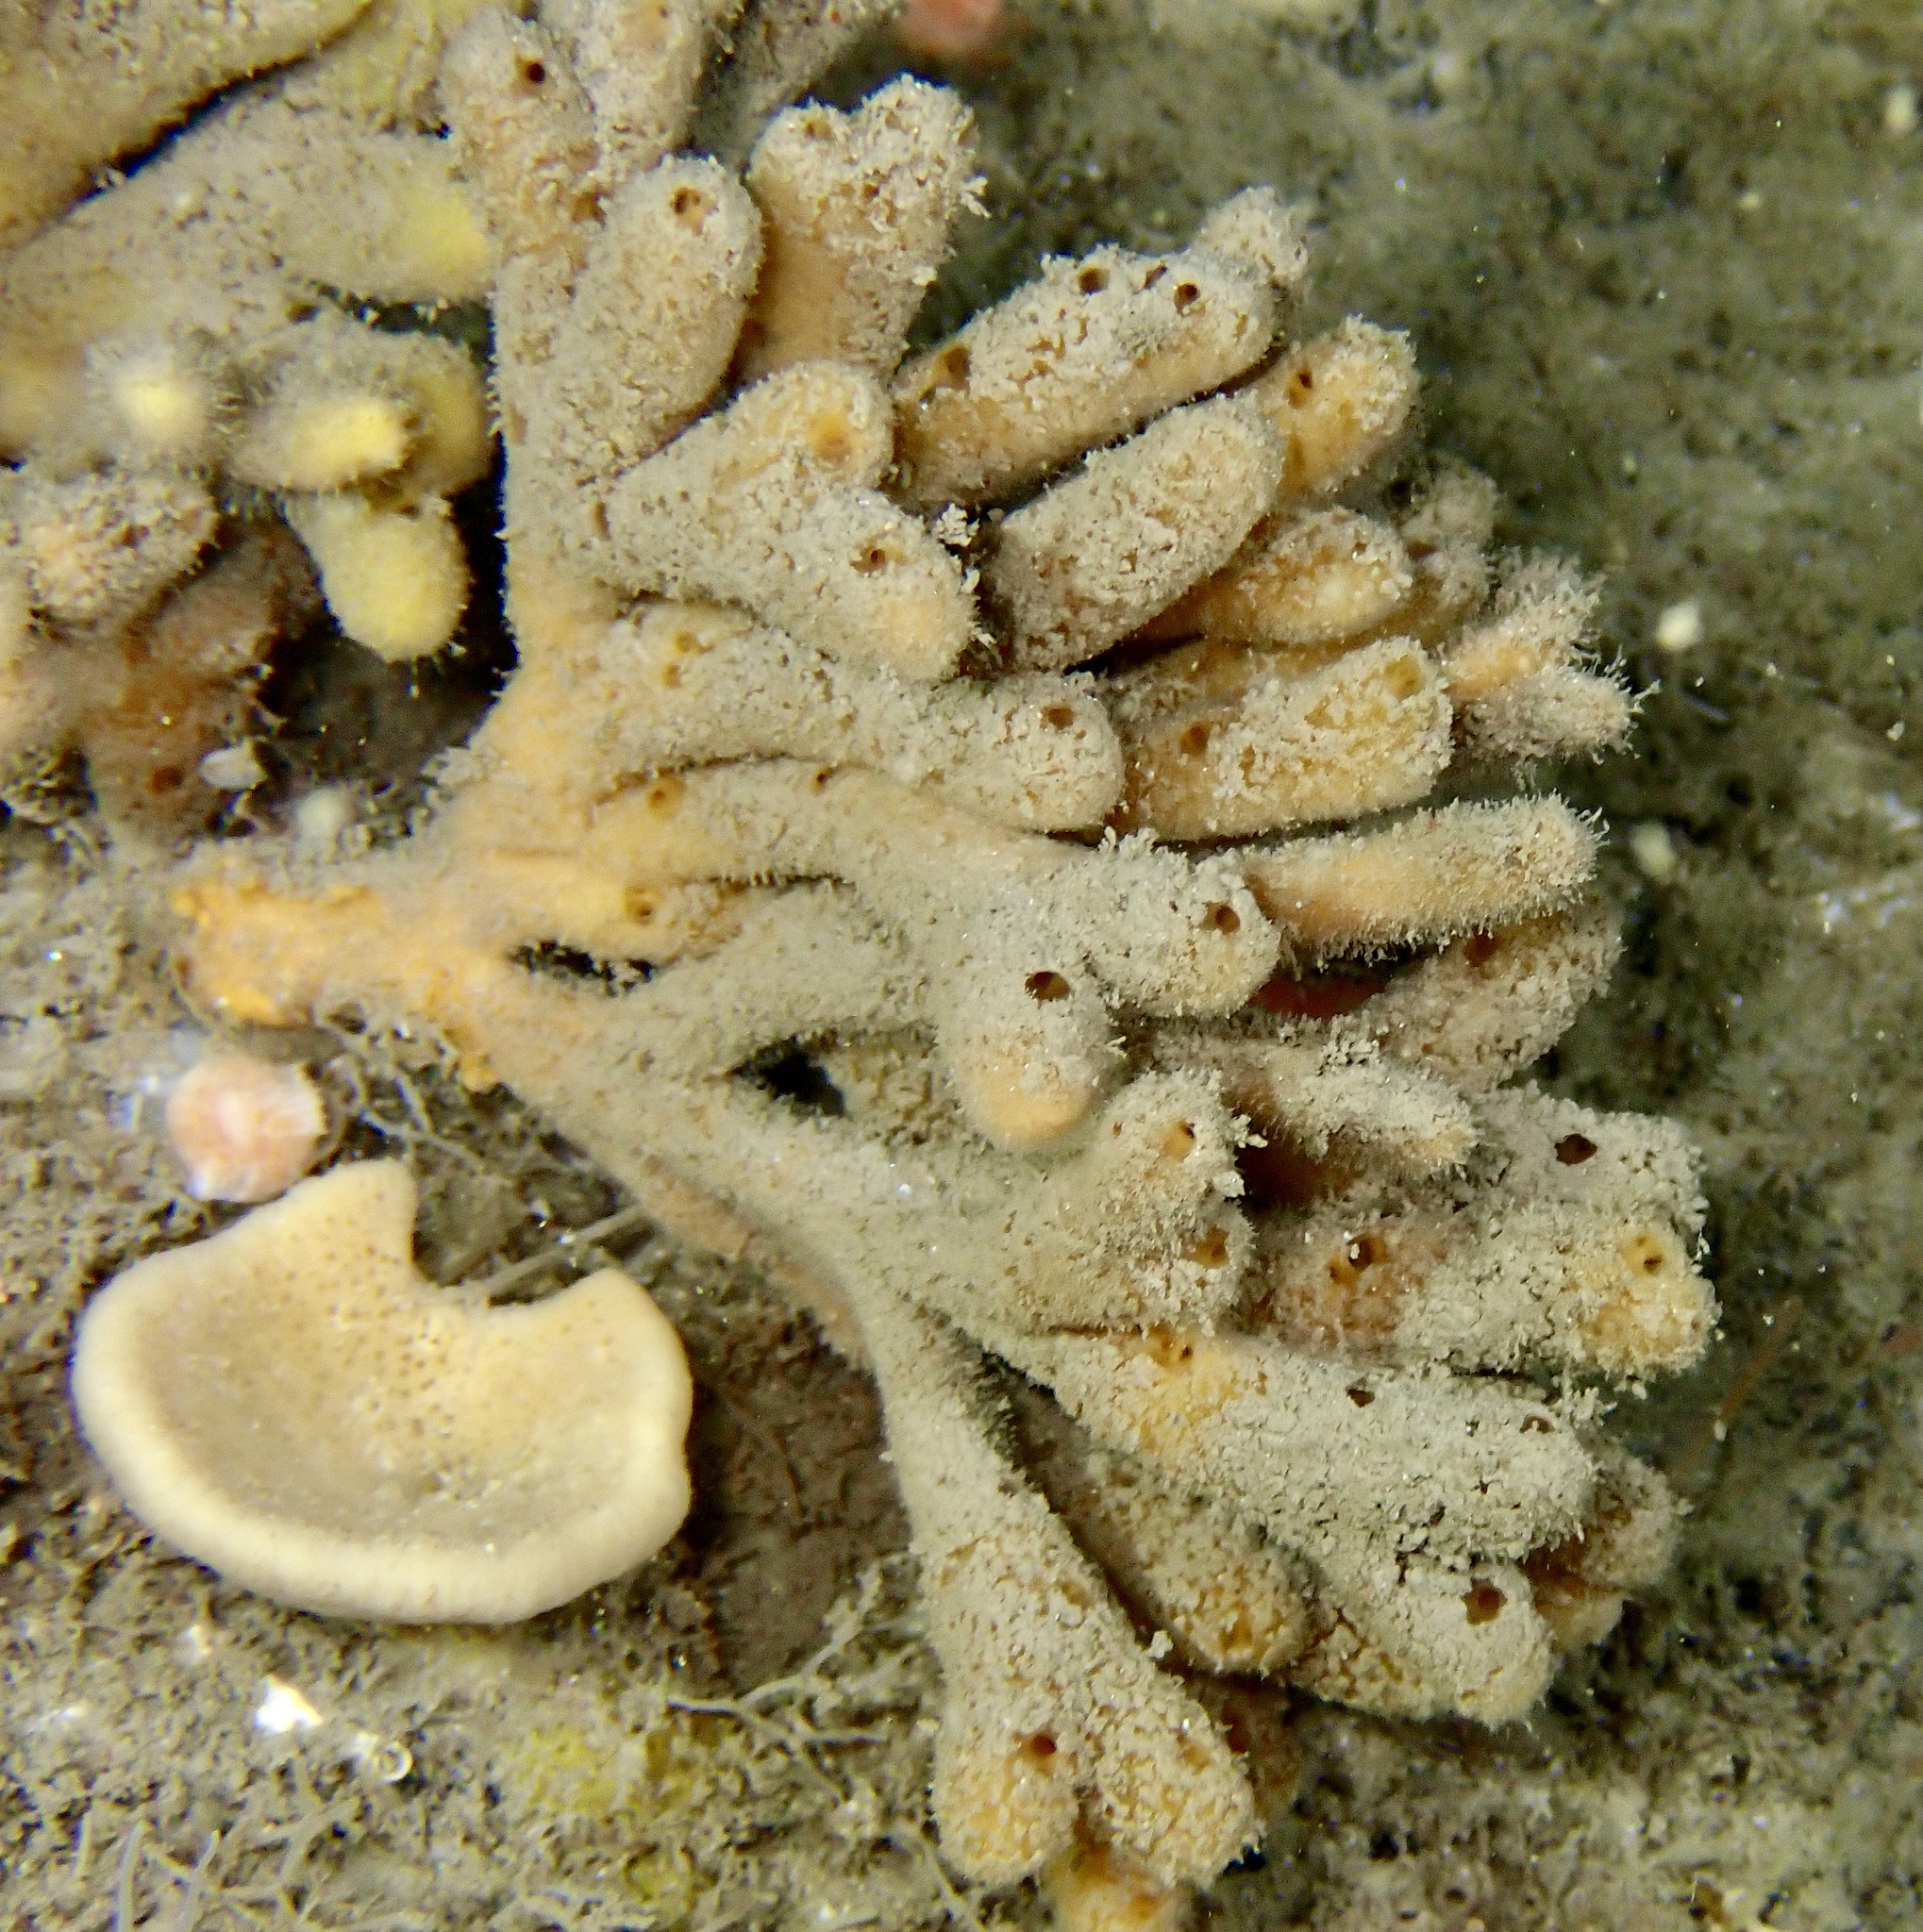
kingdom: Animalia
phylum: Porifera
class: Demospongiae
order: Axinellida
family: Stelligeridae
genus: Stelligera
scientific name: Stelligera stuposa
